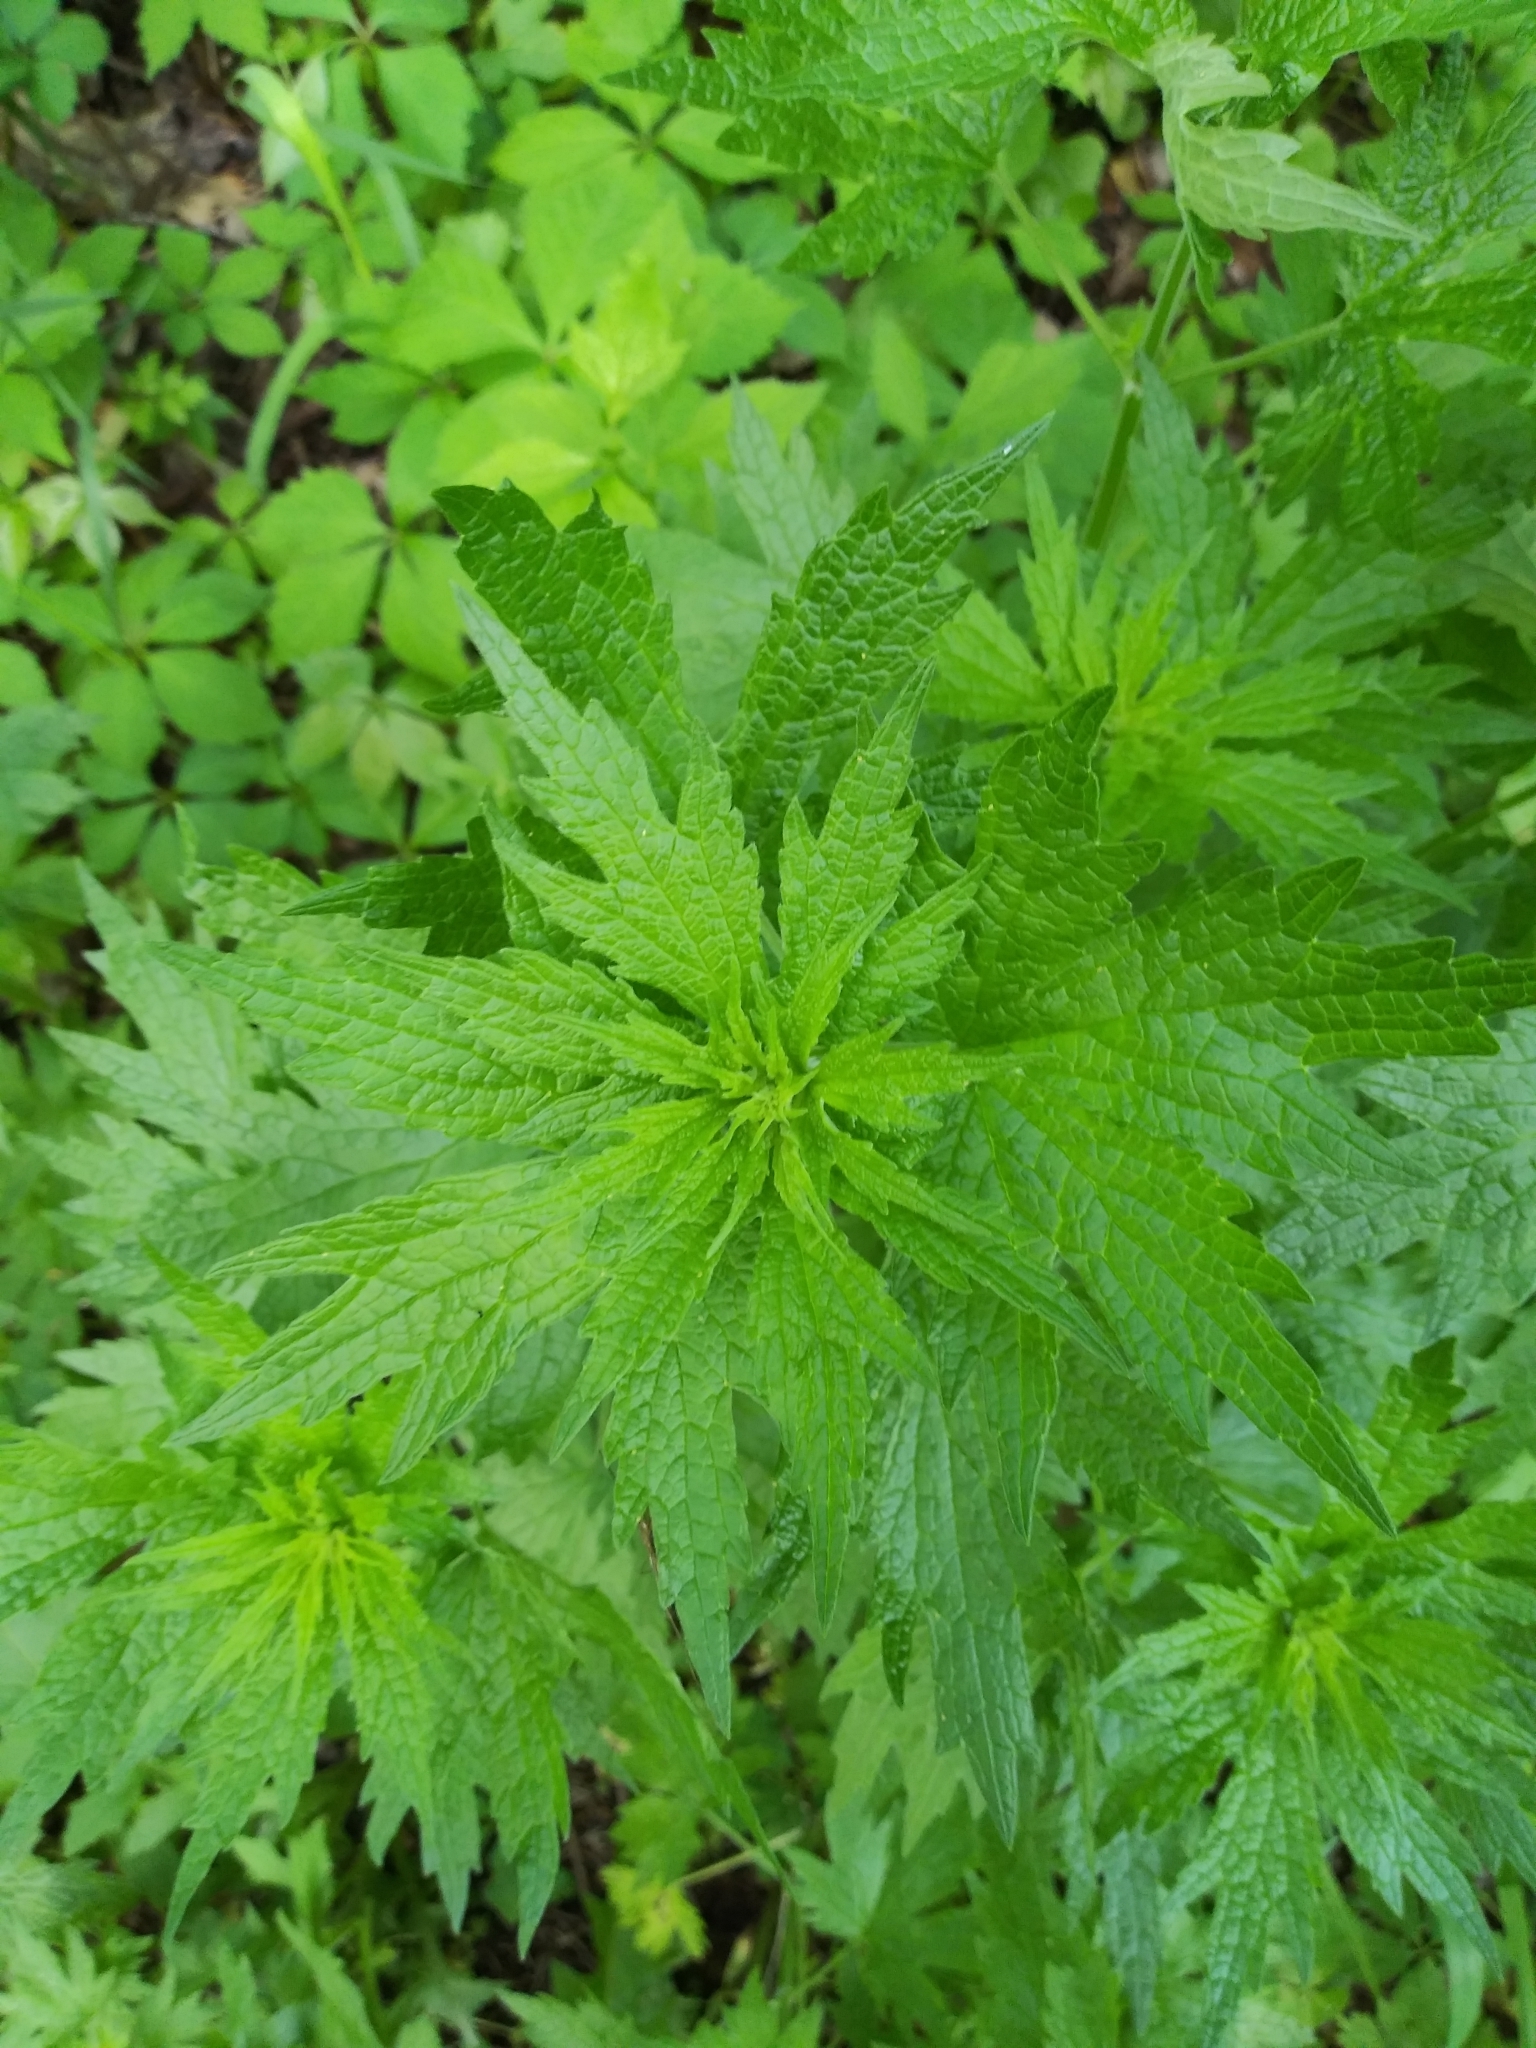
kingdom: Plantae
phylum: Tracheophyta
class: Magnoliopsida
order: Lamiales
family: Lamiaceae
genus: Leonurus
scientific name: Leonurus cardiaca
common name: Motherwort
